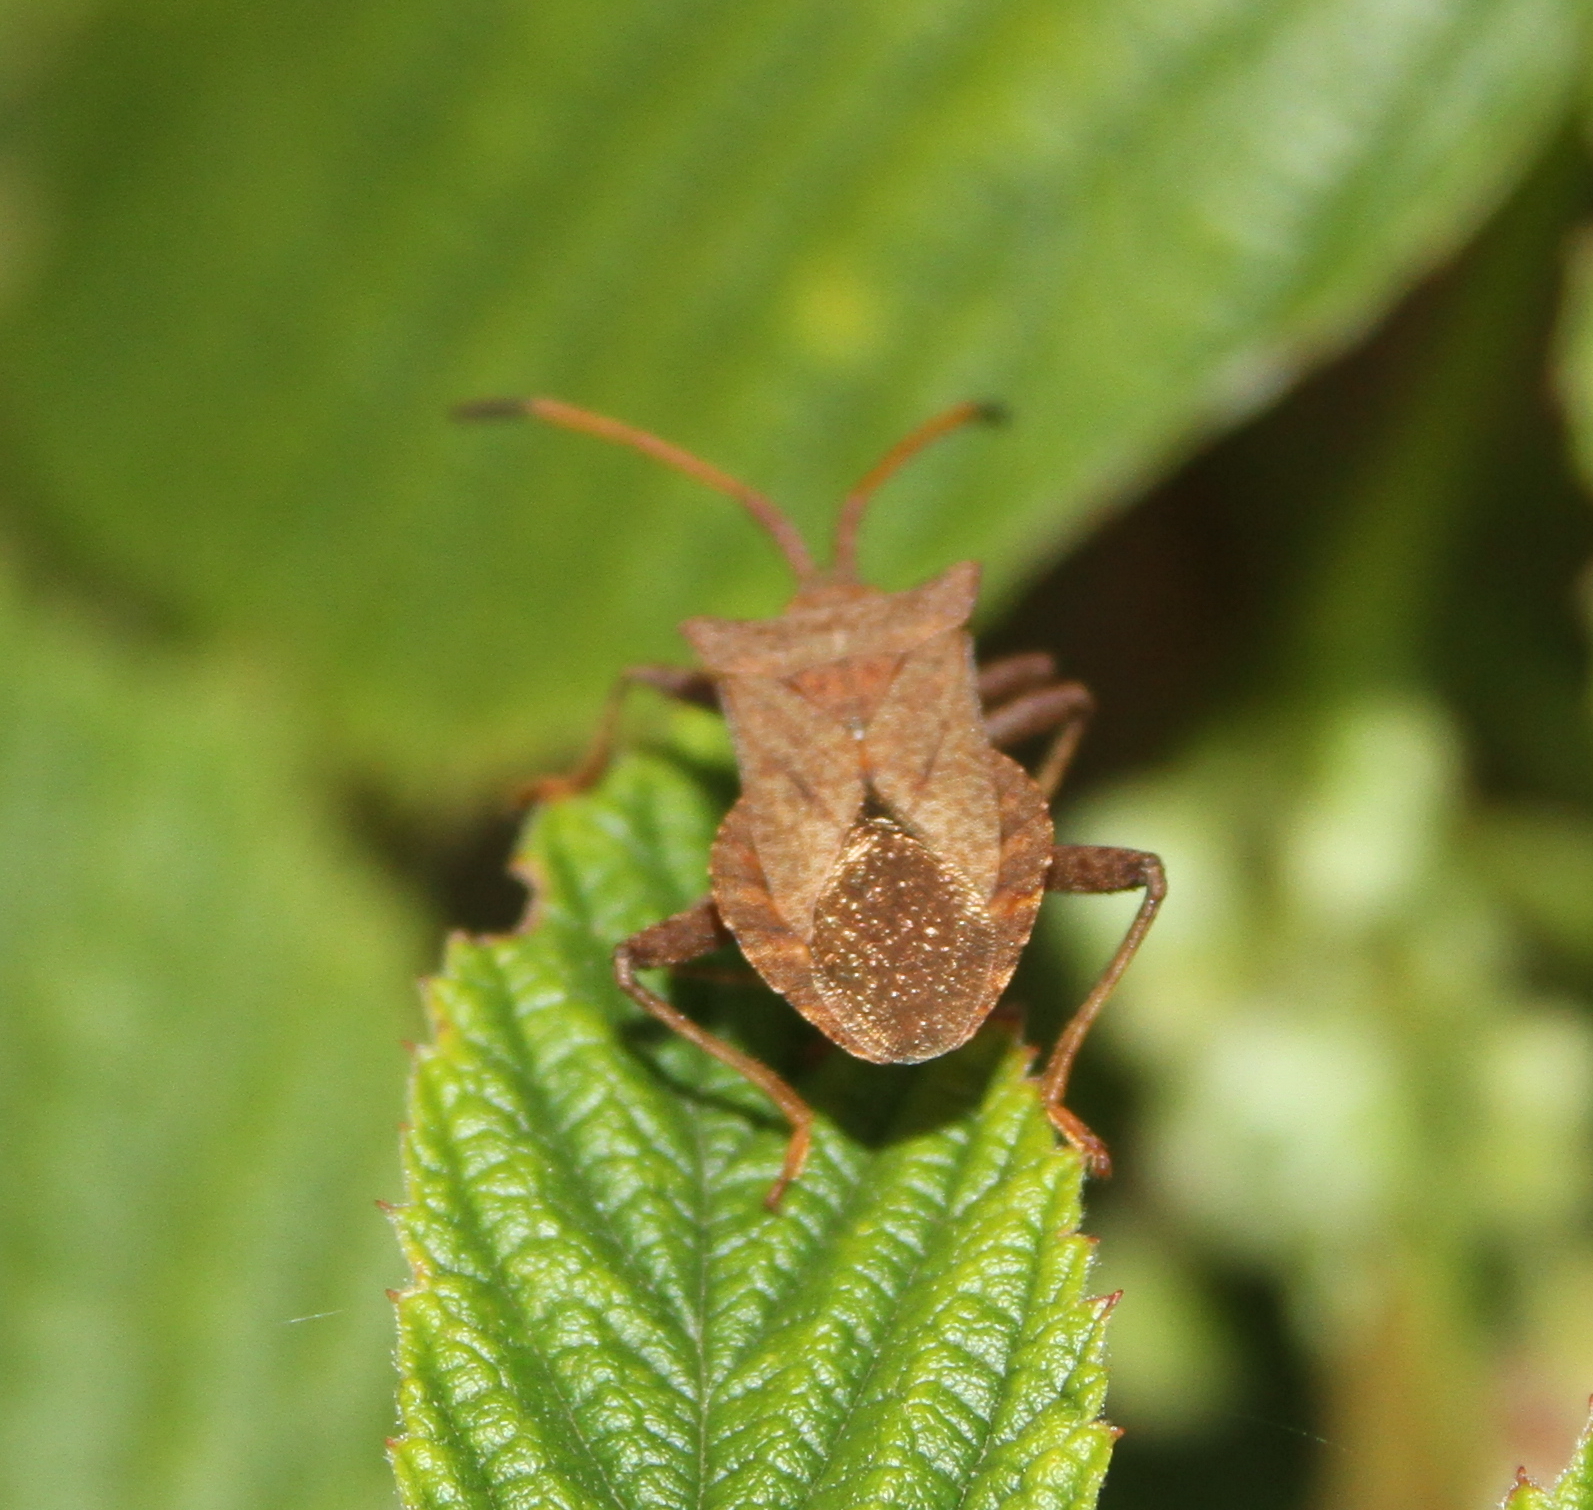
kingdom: Animalia
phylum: Arthropoda
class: Insecta
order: Hemiptera
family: Coreidae
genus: Coreus
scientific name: Coreus marginatus
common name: Dock bug
